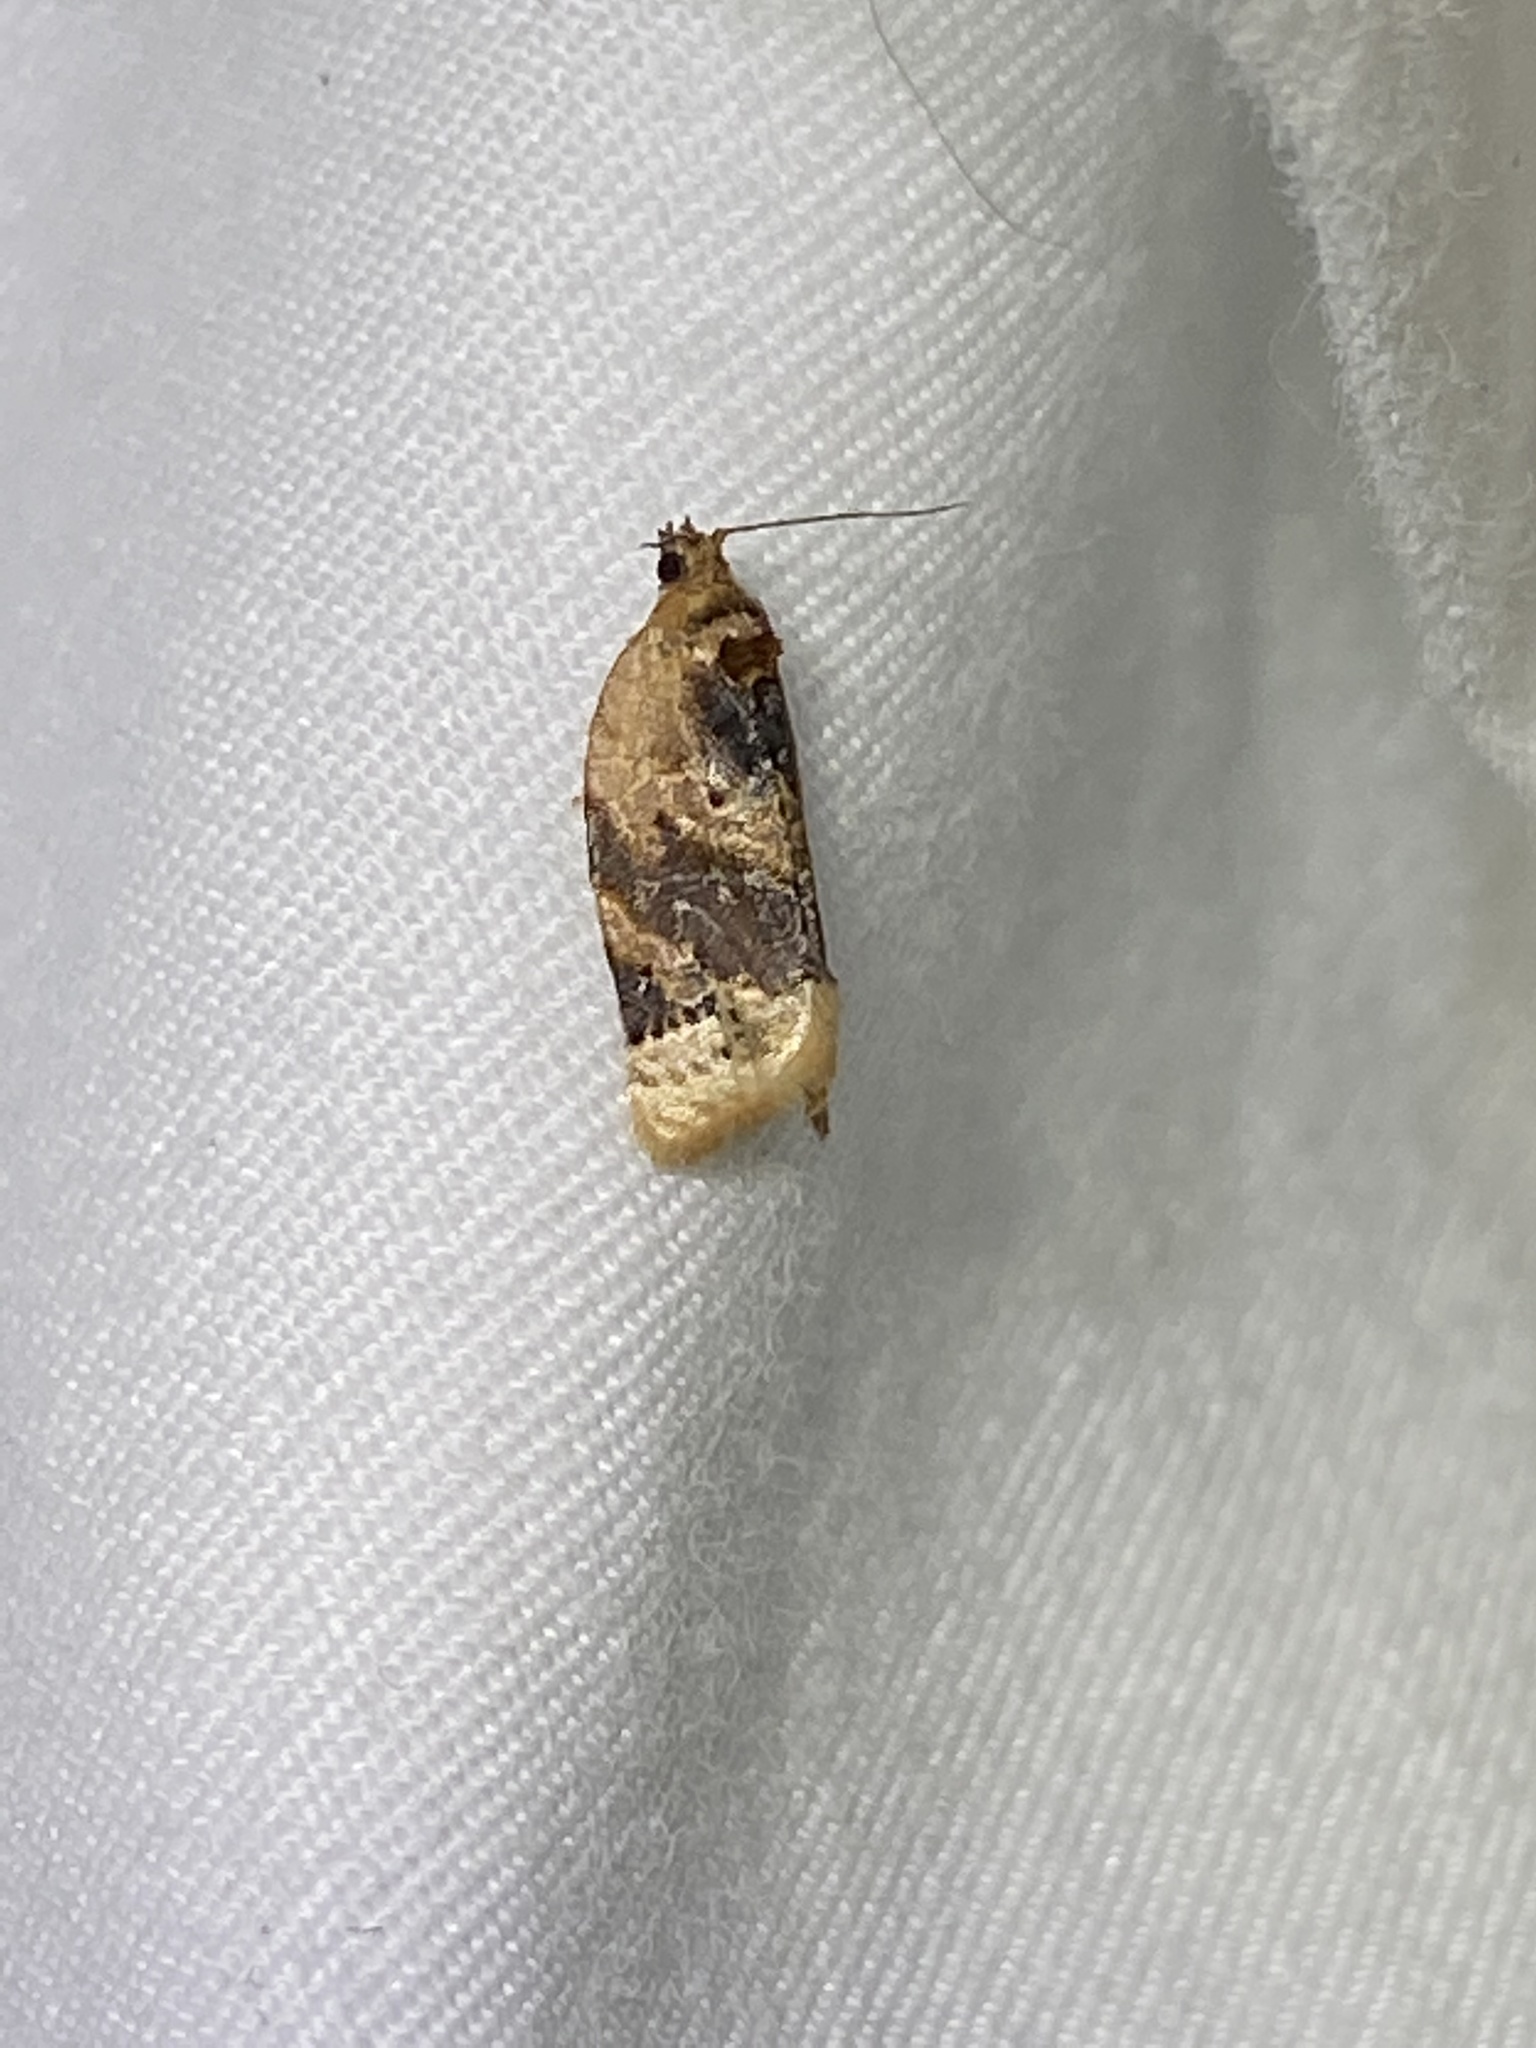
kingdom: Animalia
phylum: Arthropoda
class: Insecta
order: Lepidoptera
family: Tortricidae
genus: Argyrotaenia
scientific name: Argyrotaenia velutinana
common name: Red-banded leafroller moth
